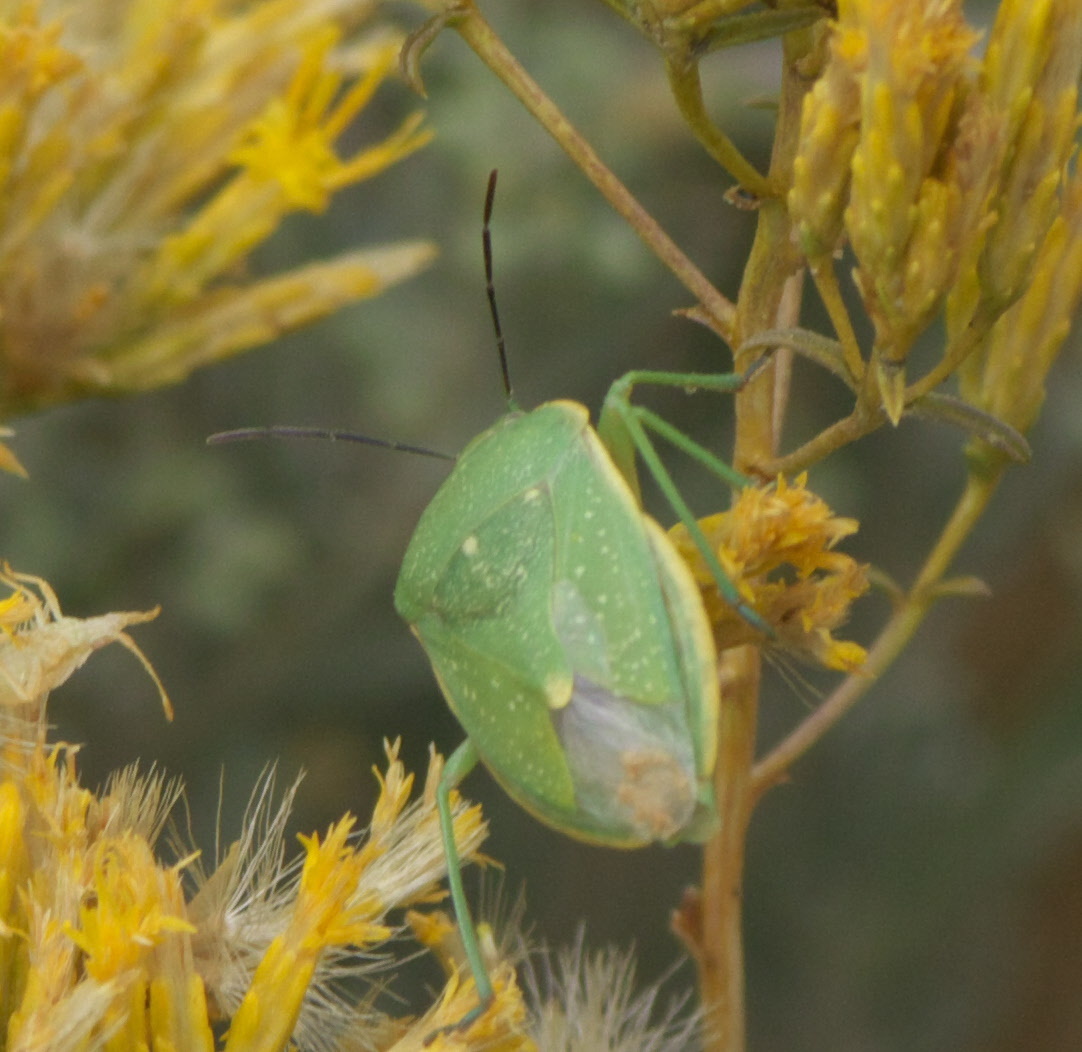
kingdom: Animalia
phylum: Arthropoda
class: Insecta
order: Hemiptera
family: Pentatomidae
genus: Chlorochroa
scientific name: Chlorochroa uhleri
